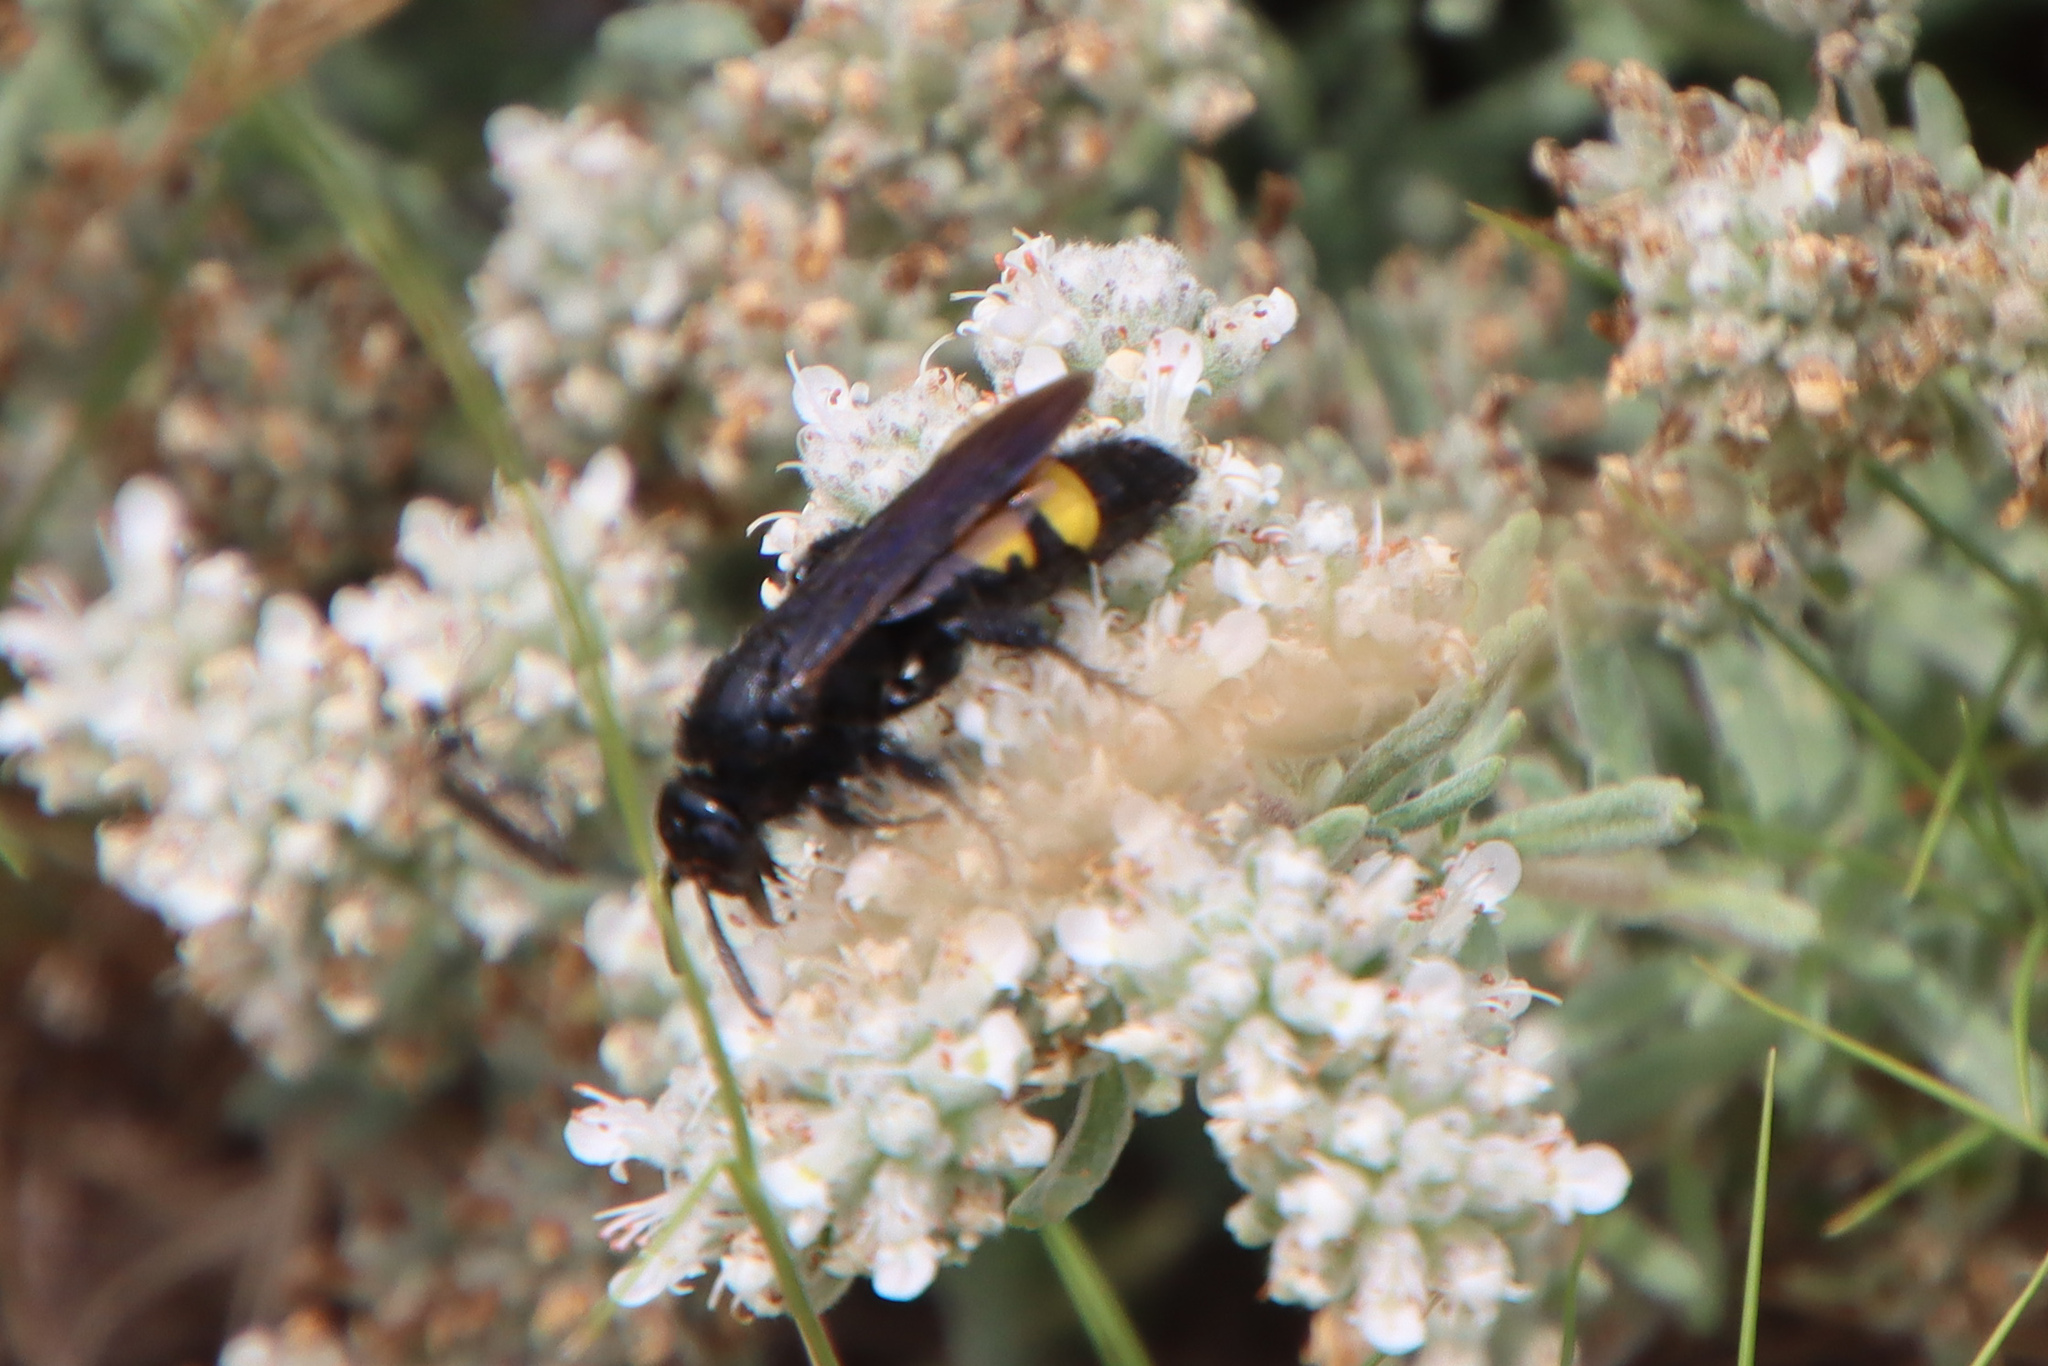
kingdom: Animalia
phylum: Arthropoda
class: Insecta
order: Hymenoptera
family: Scoliidae
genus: Scolia
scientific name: Scolia hirta
